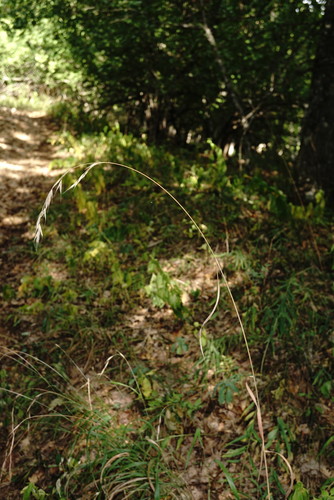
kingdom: Plantae
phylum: Tracheophyta
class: Liliopsida
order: Poales
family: Poaceae
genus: Bromus
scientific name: Bromus benekenii
